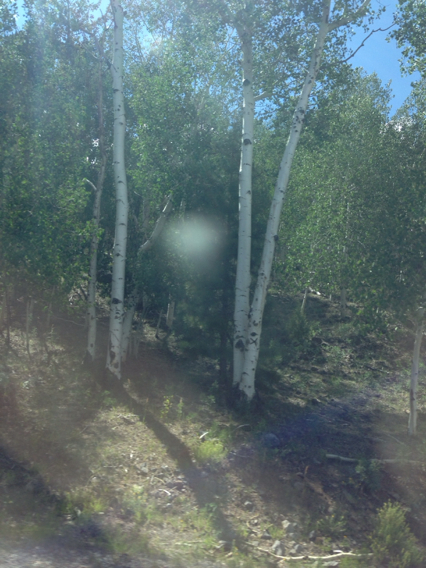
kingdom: Plantae
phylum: Tracheophyta
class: Magnoliopsida
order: Malpighiales
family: Salicaceae
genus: Populus
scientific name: Populus tremuloides
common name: Quaking aspen
